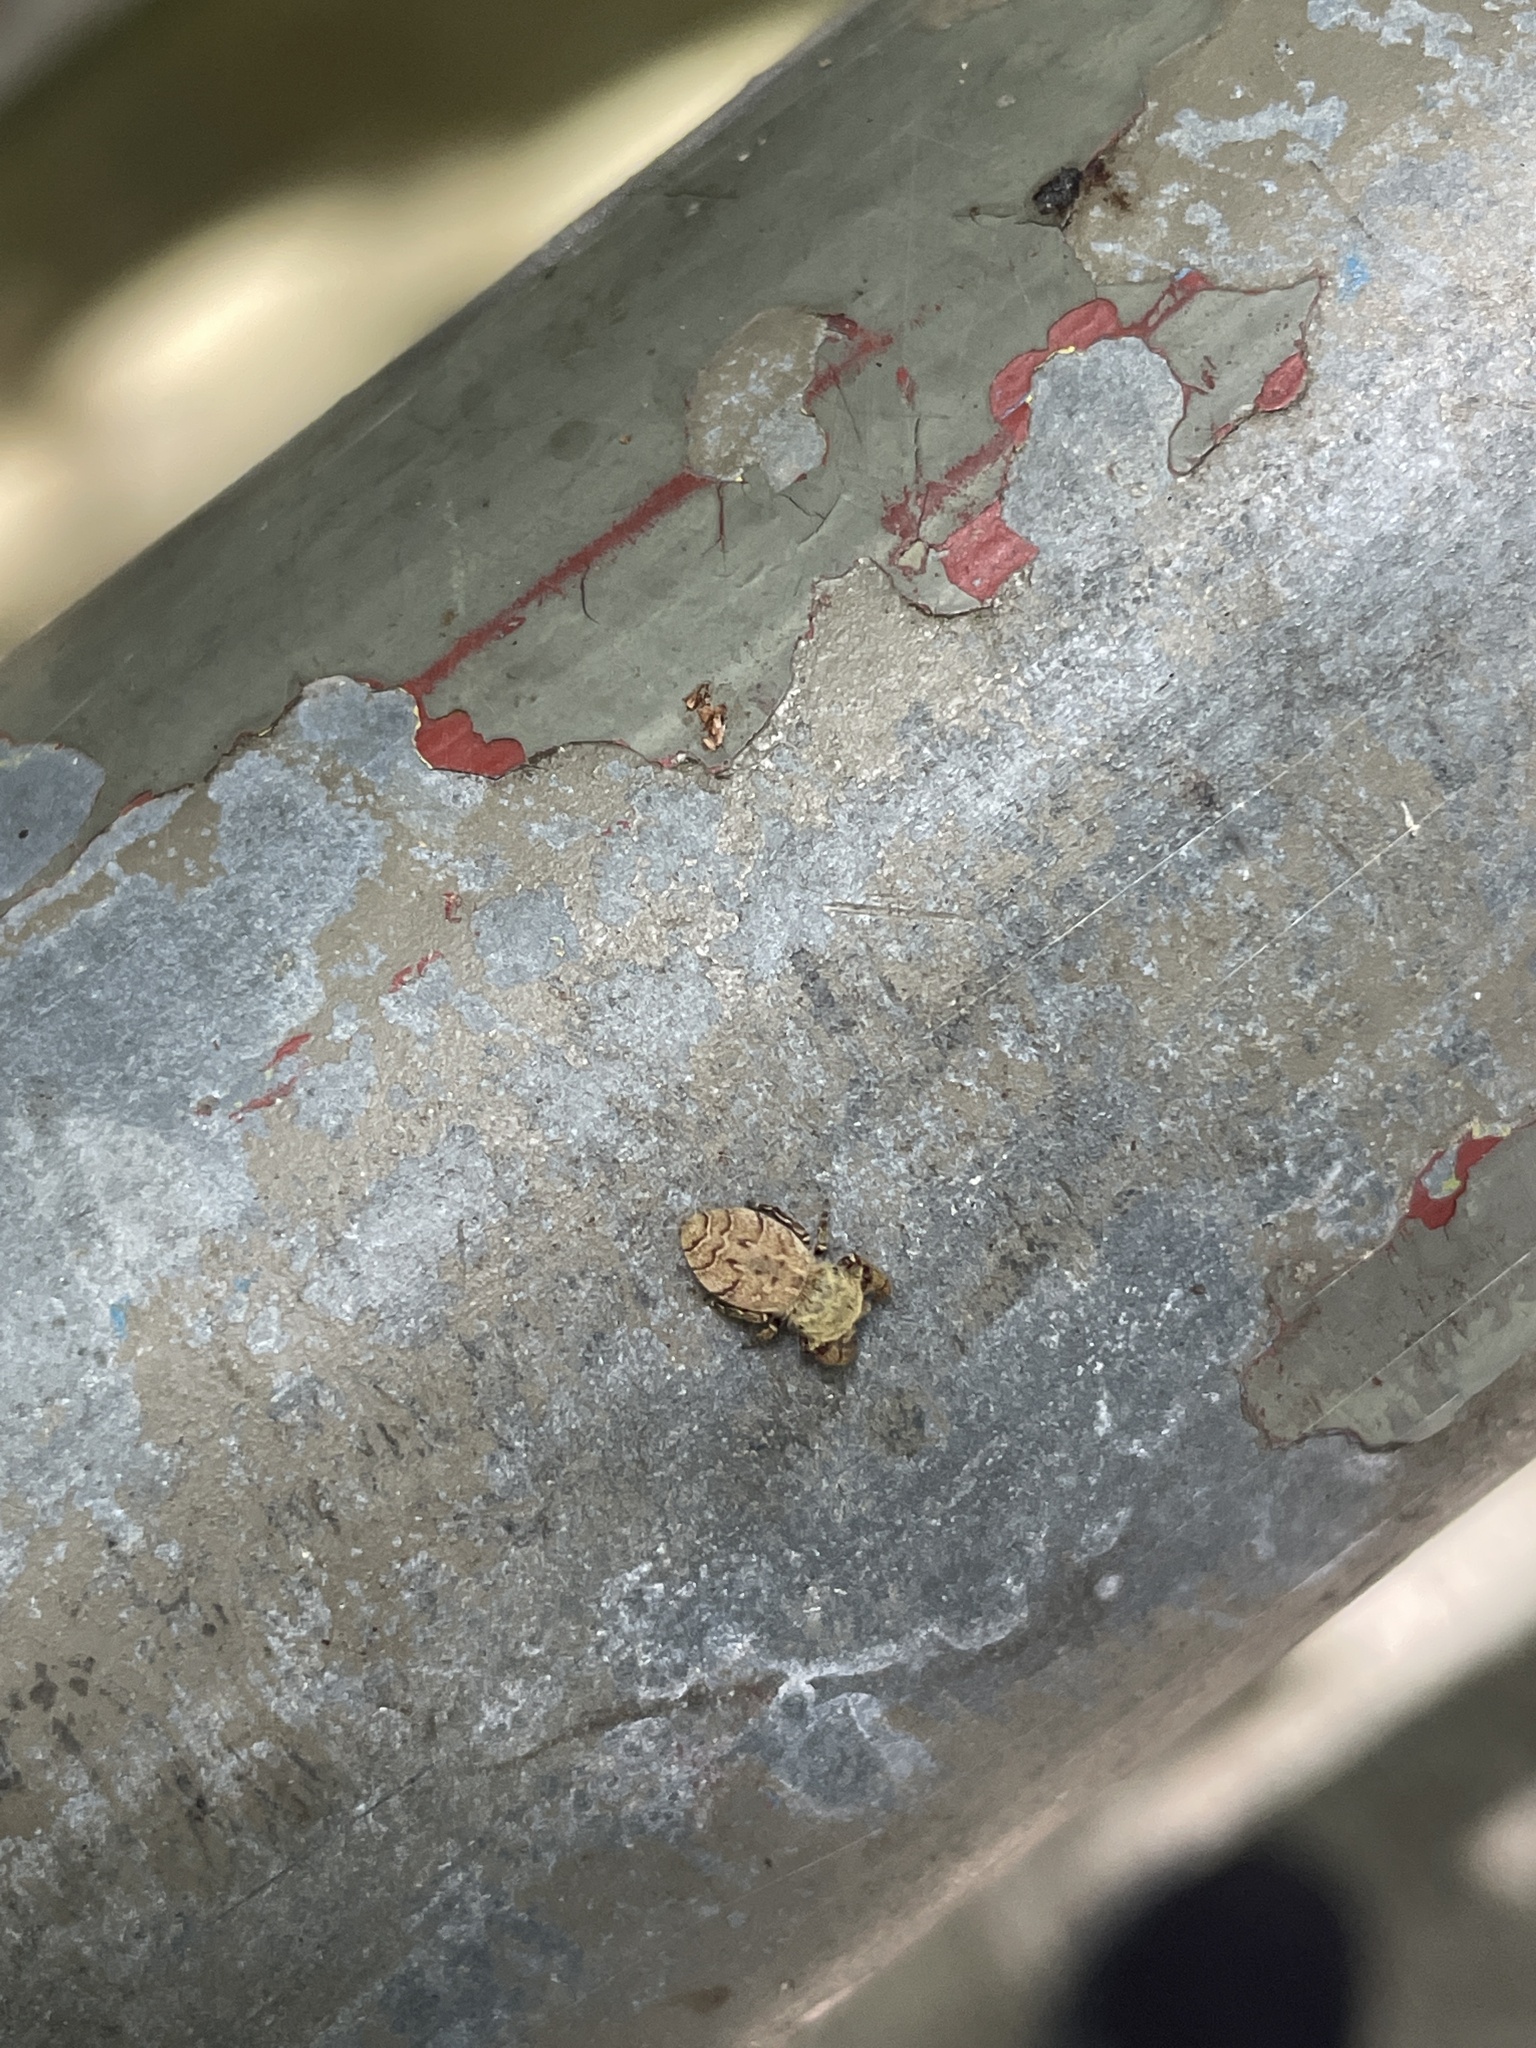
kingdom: Animalia
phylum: Arthropoda
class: Arachnida
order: Araneae
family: Salticidae
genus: Rhene
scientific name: Rhene flavicomans
